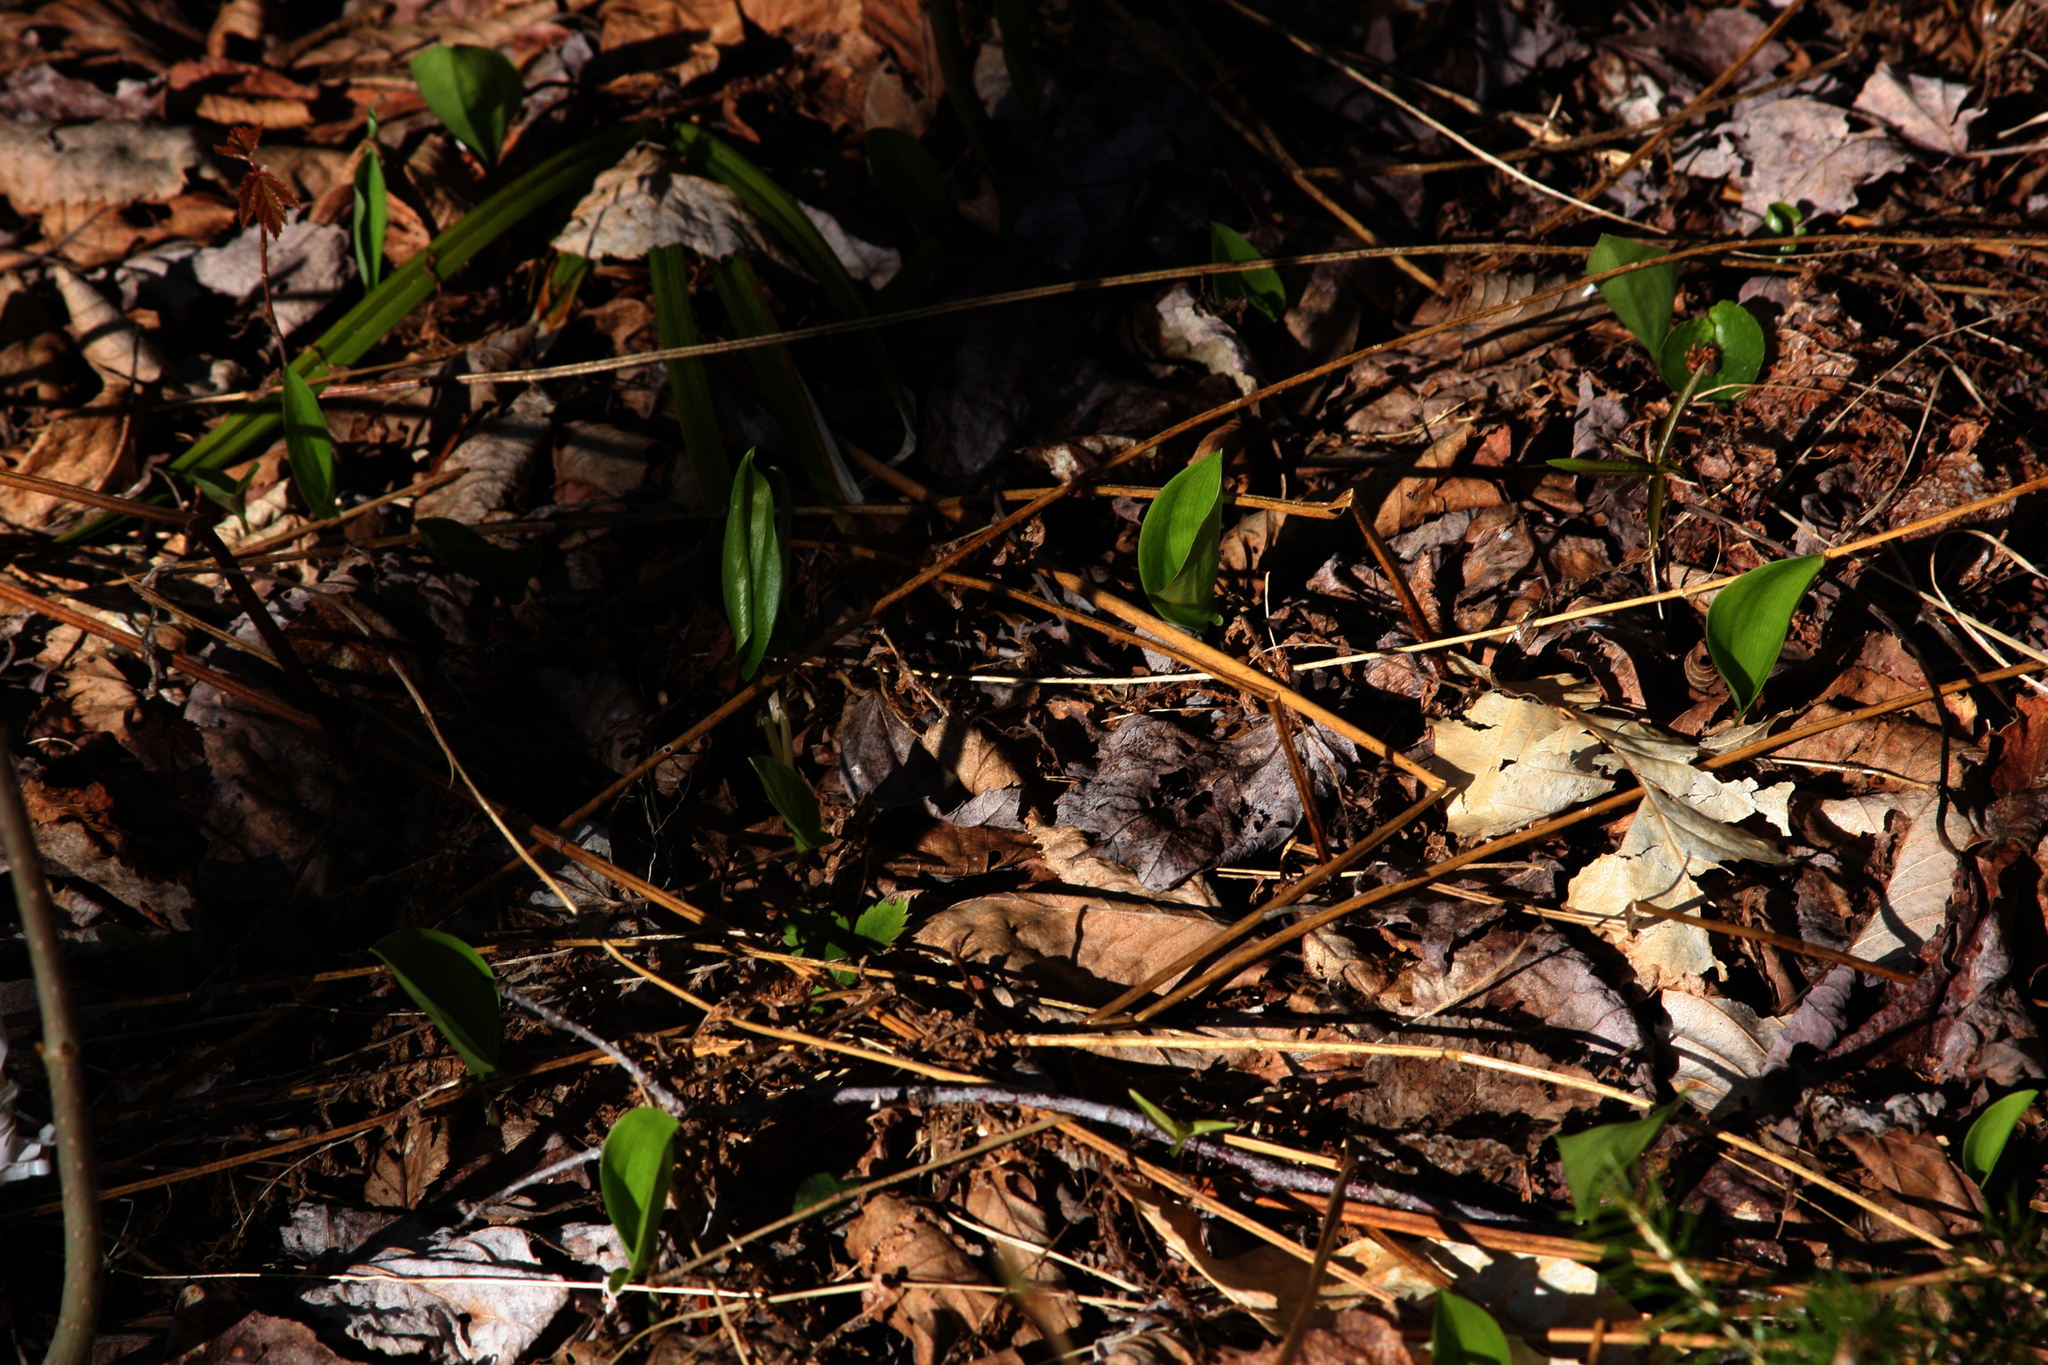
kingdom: Plantae
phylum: Tracheophyta
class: Liliopsida
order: Asparagales
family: Asparagaceae
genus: Maianthemum
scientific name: Maianthemum canadense
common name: False lily-of-the-valley
